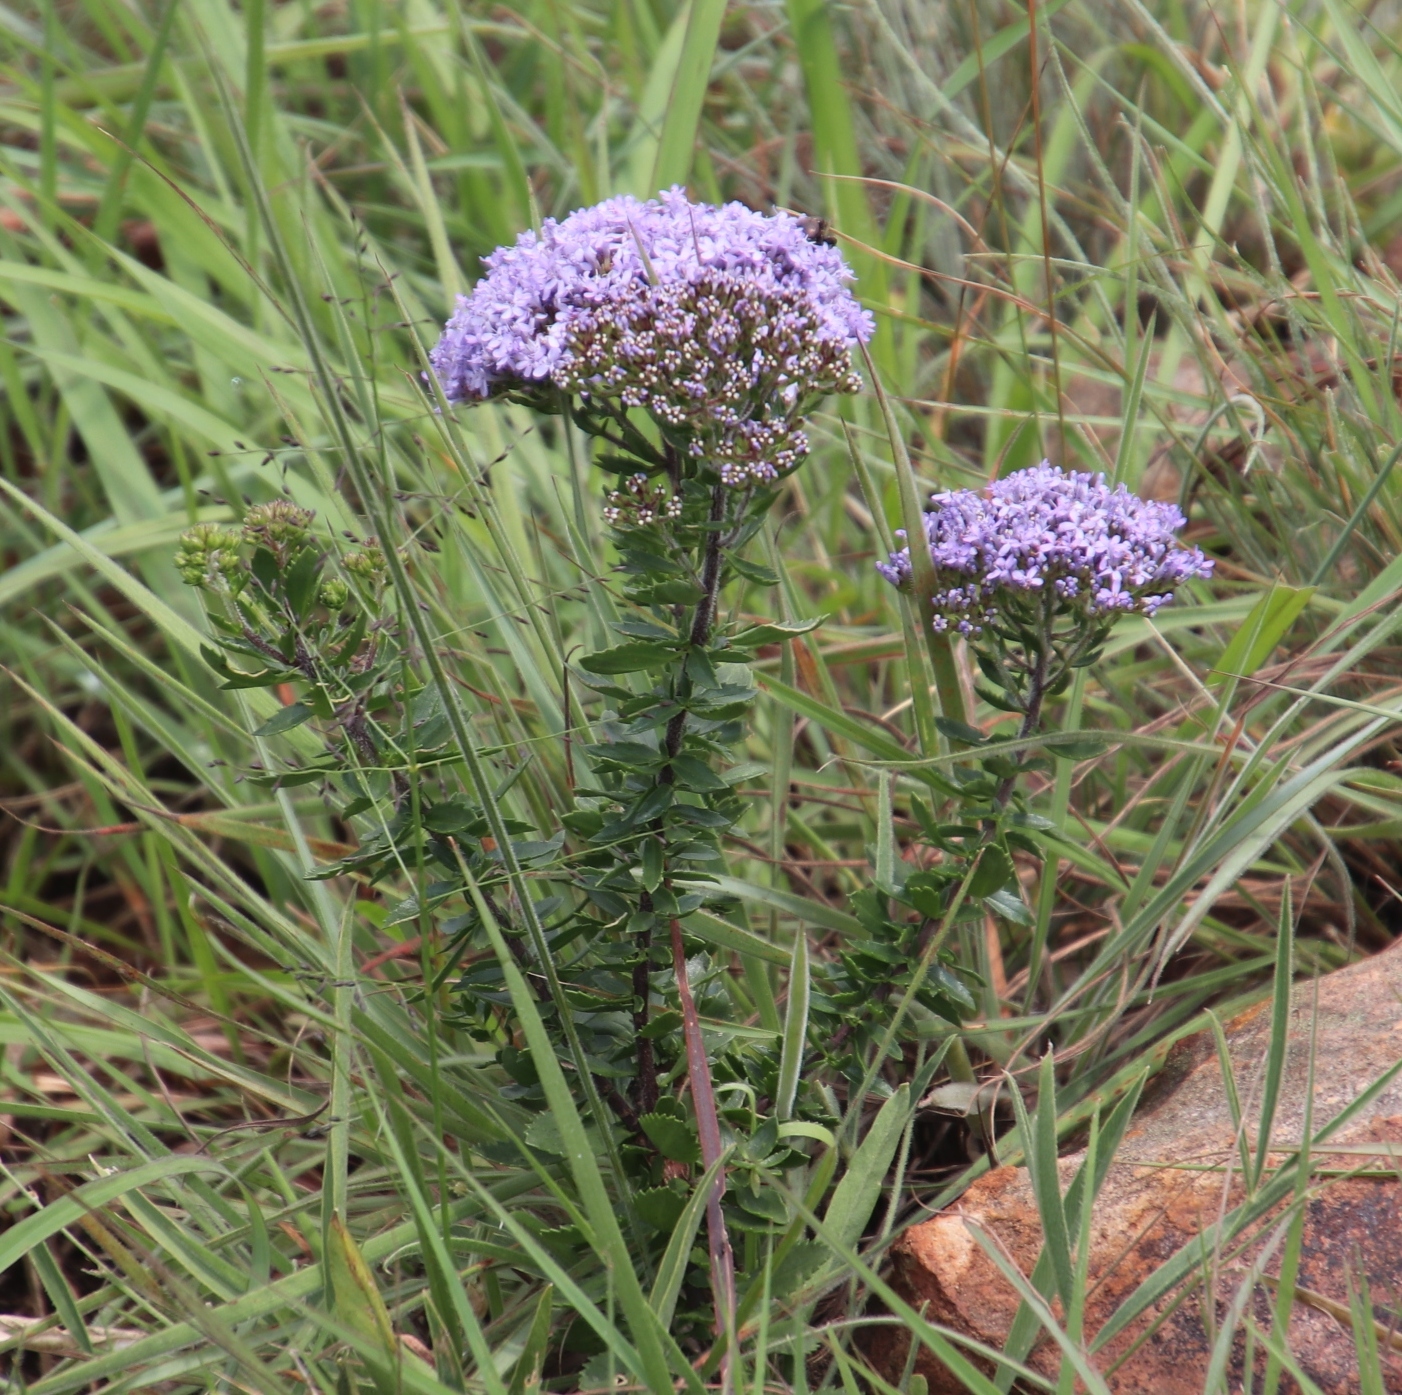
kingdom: Plantae
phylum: Tracheophyta
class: Magnoliopsida
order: Lamiales
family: Scrophulariaceae
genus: Tetraselago
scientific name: Tetraselago longituba
